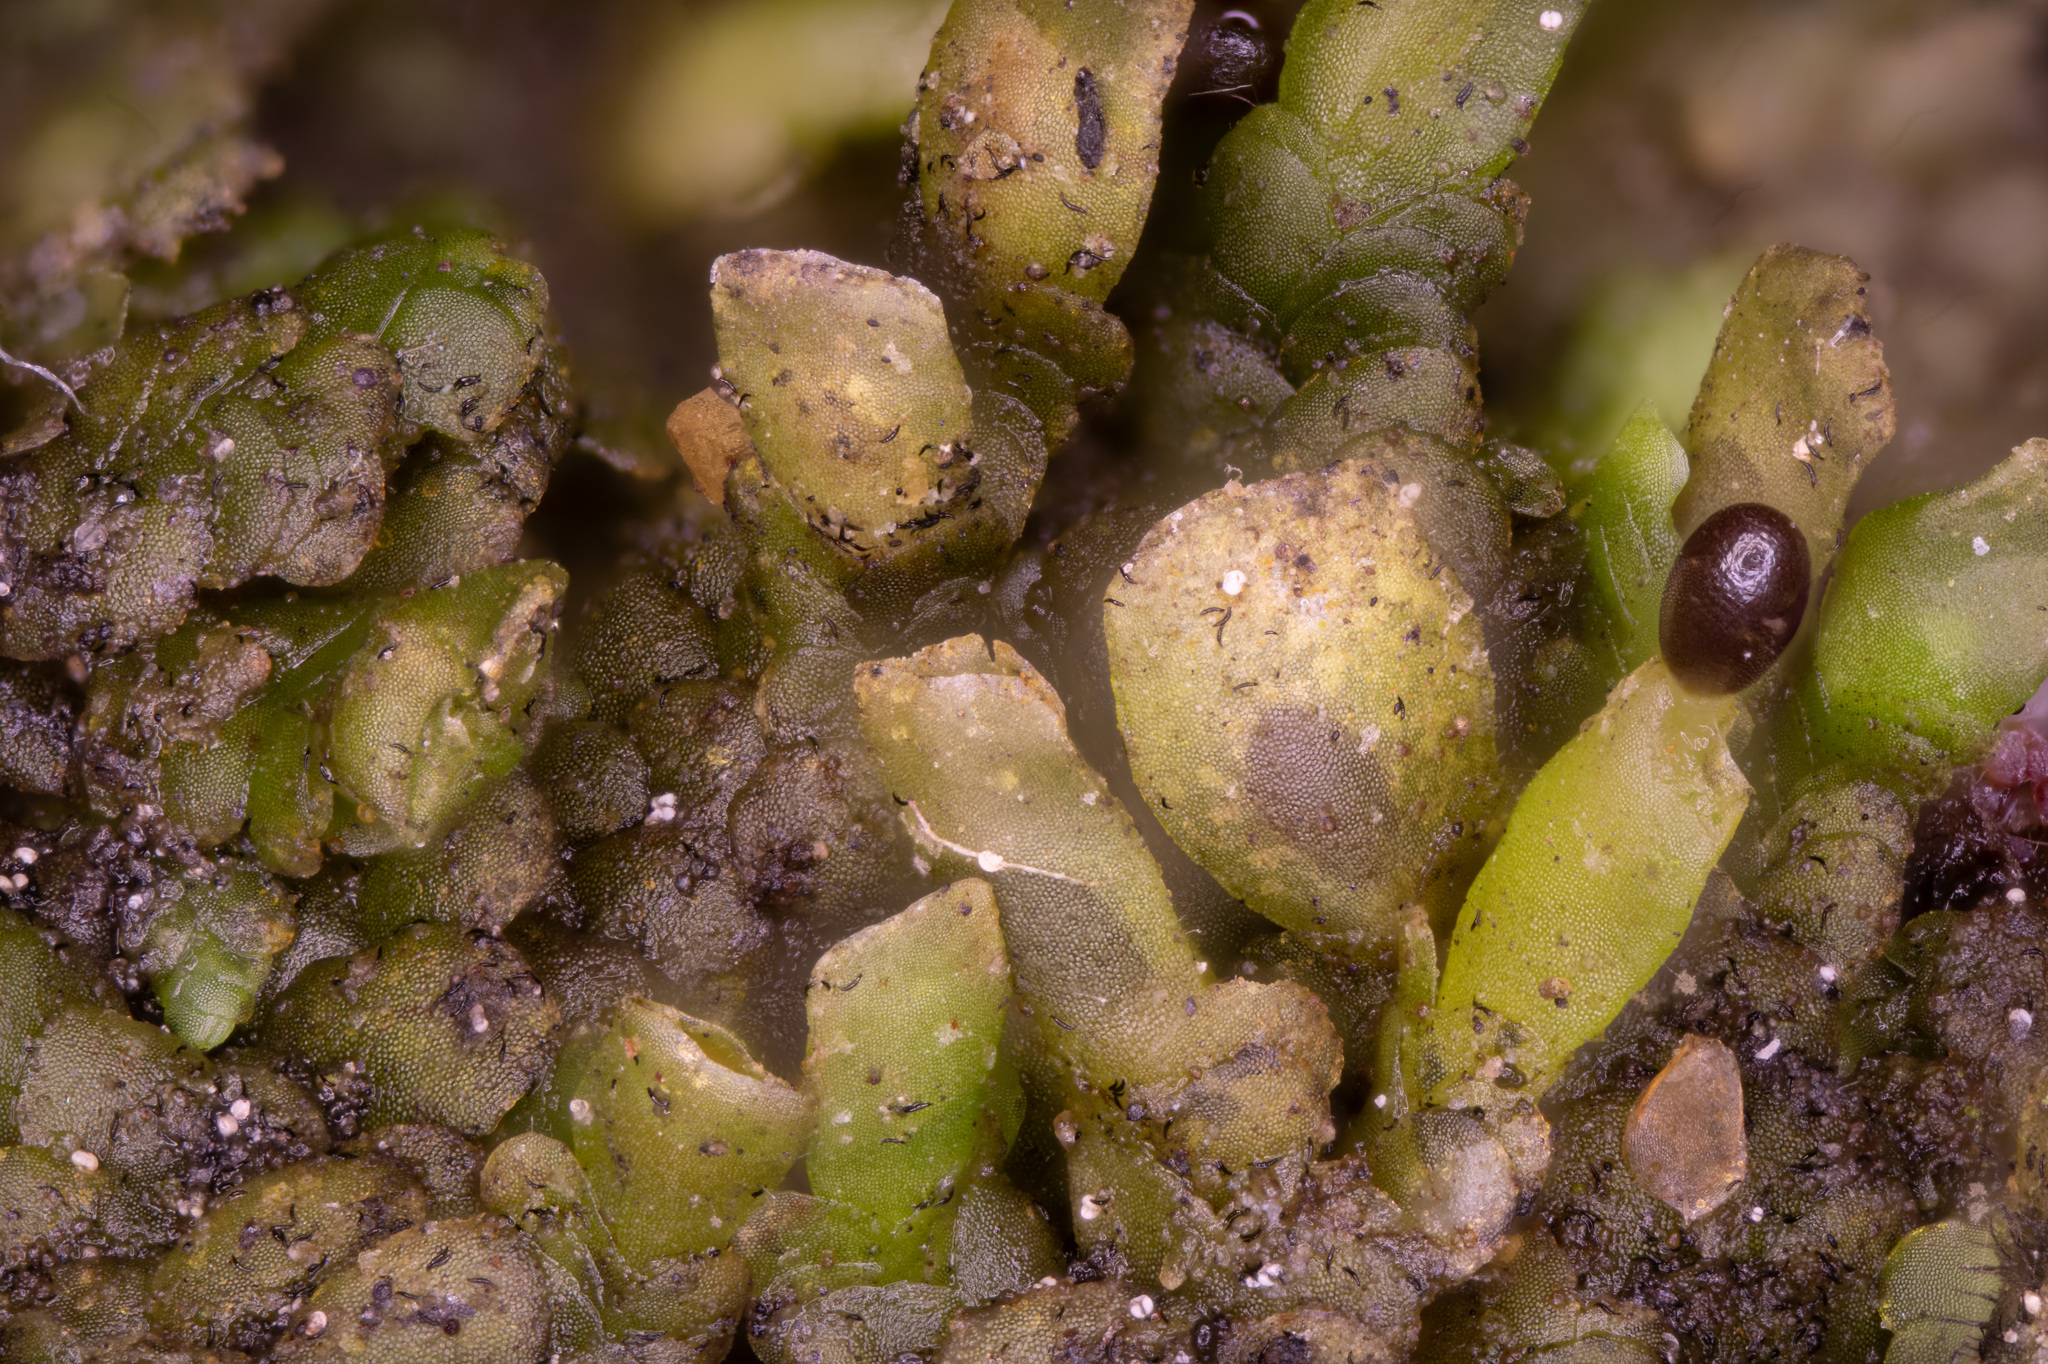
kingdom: Plantae
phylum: Marchantiophyta
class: Jungermanniopsida
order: Porellales
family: Radulaceae
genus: Radula
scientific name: Radula complanata
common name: Flat-leaved scalewort
